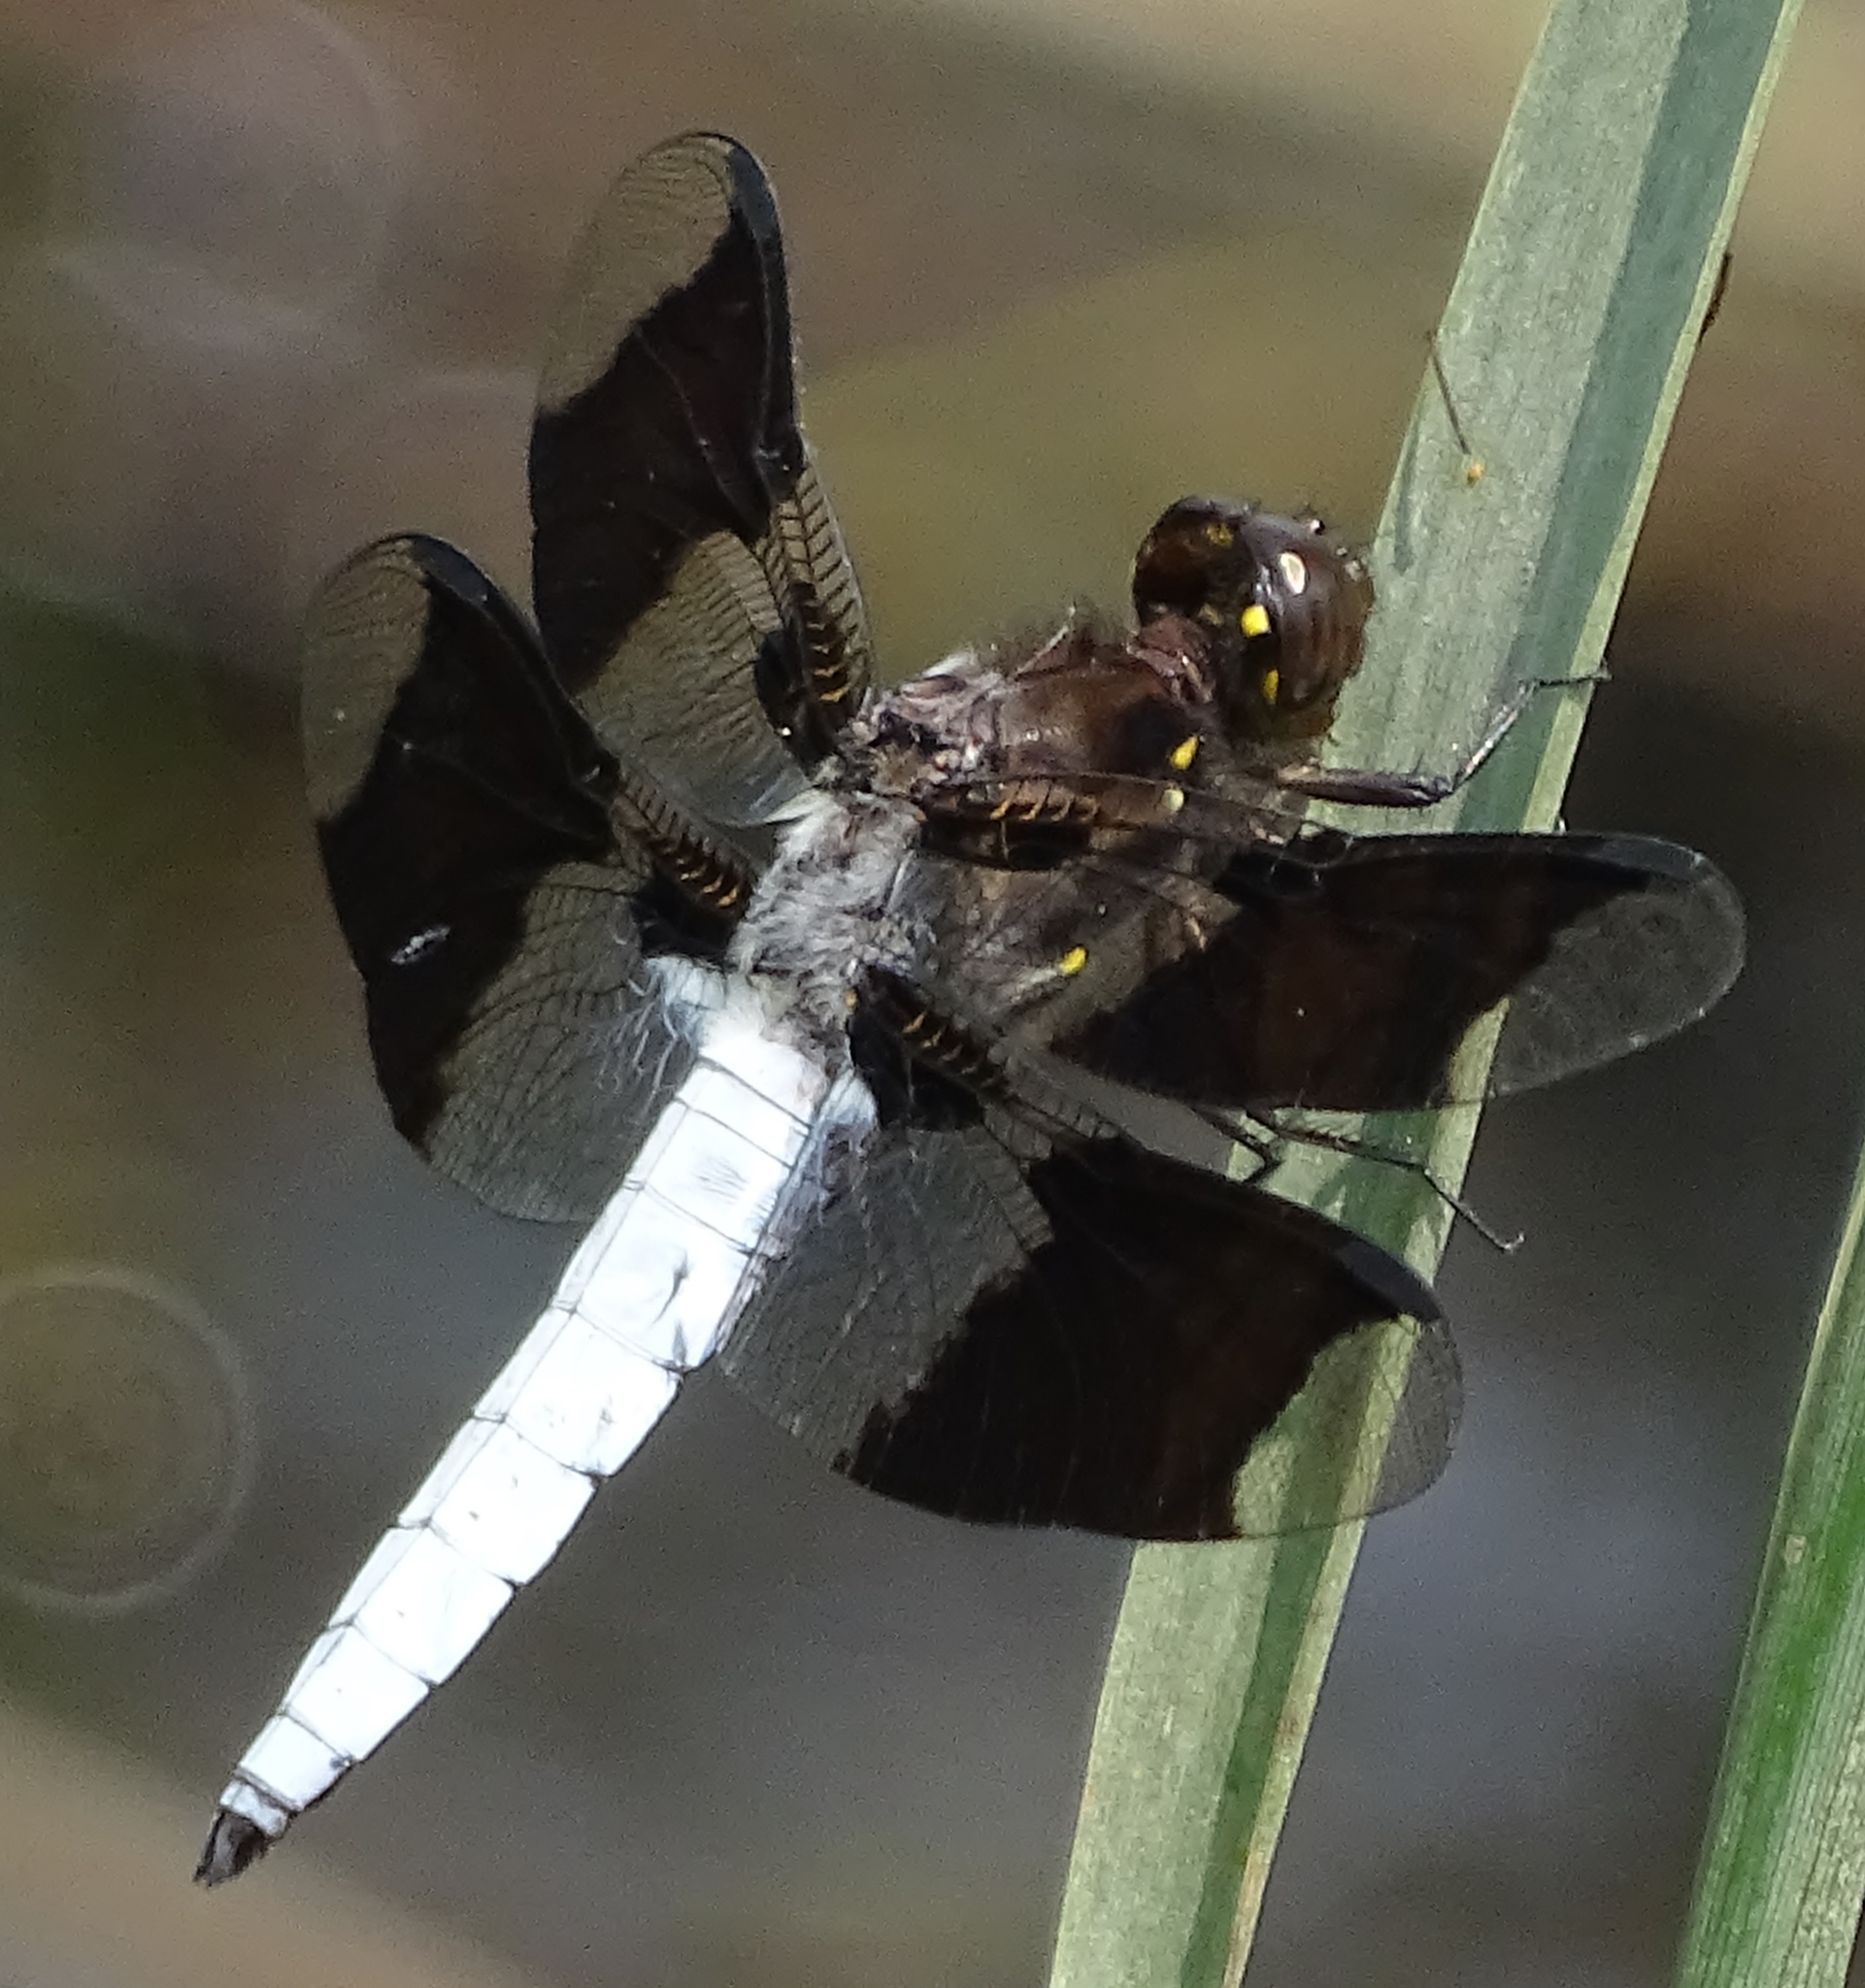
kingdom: Animalia
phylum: Arthropoda
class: Insecta
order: Odonata
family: Libellulidae
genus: Plathemis
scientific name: Plathemis lydia
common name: Common whitetail
